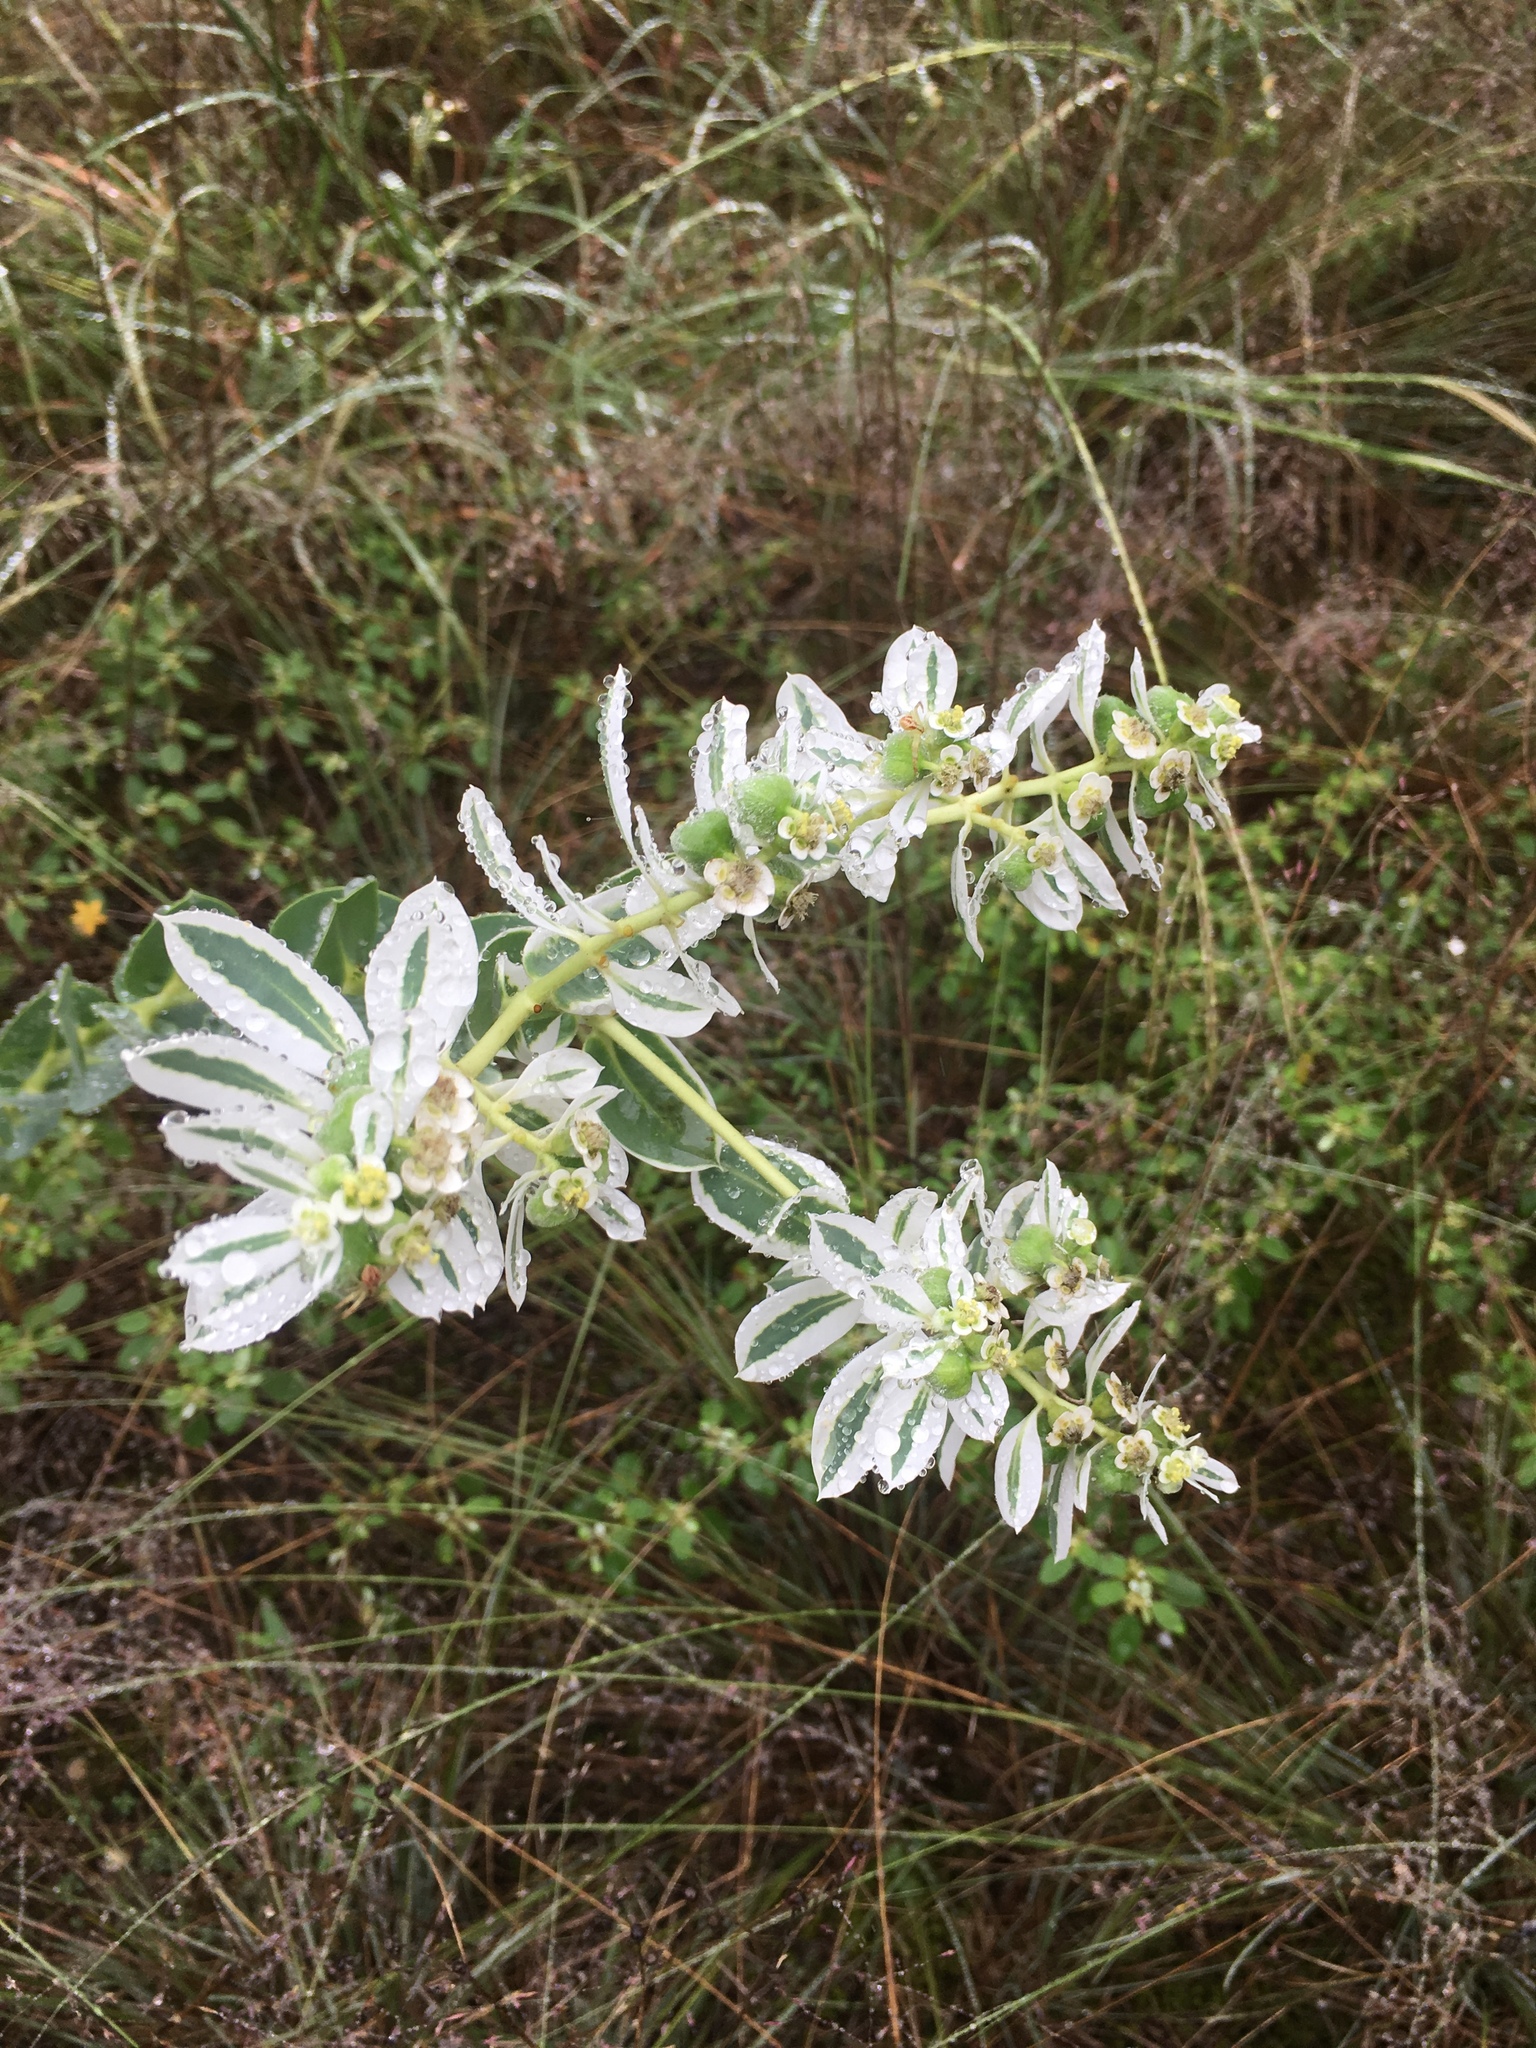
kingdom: Plantae
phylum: Tracheophyta
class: Magnoliopsida
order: Malpighiales
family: Euphorbiaceae
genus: Euphorbia
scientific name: Euphorbia marginata
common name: Ghostweed
